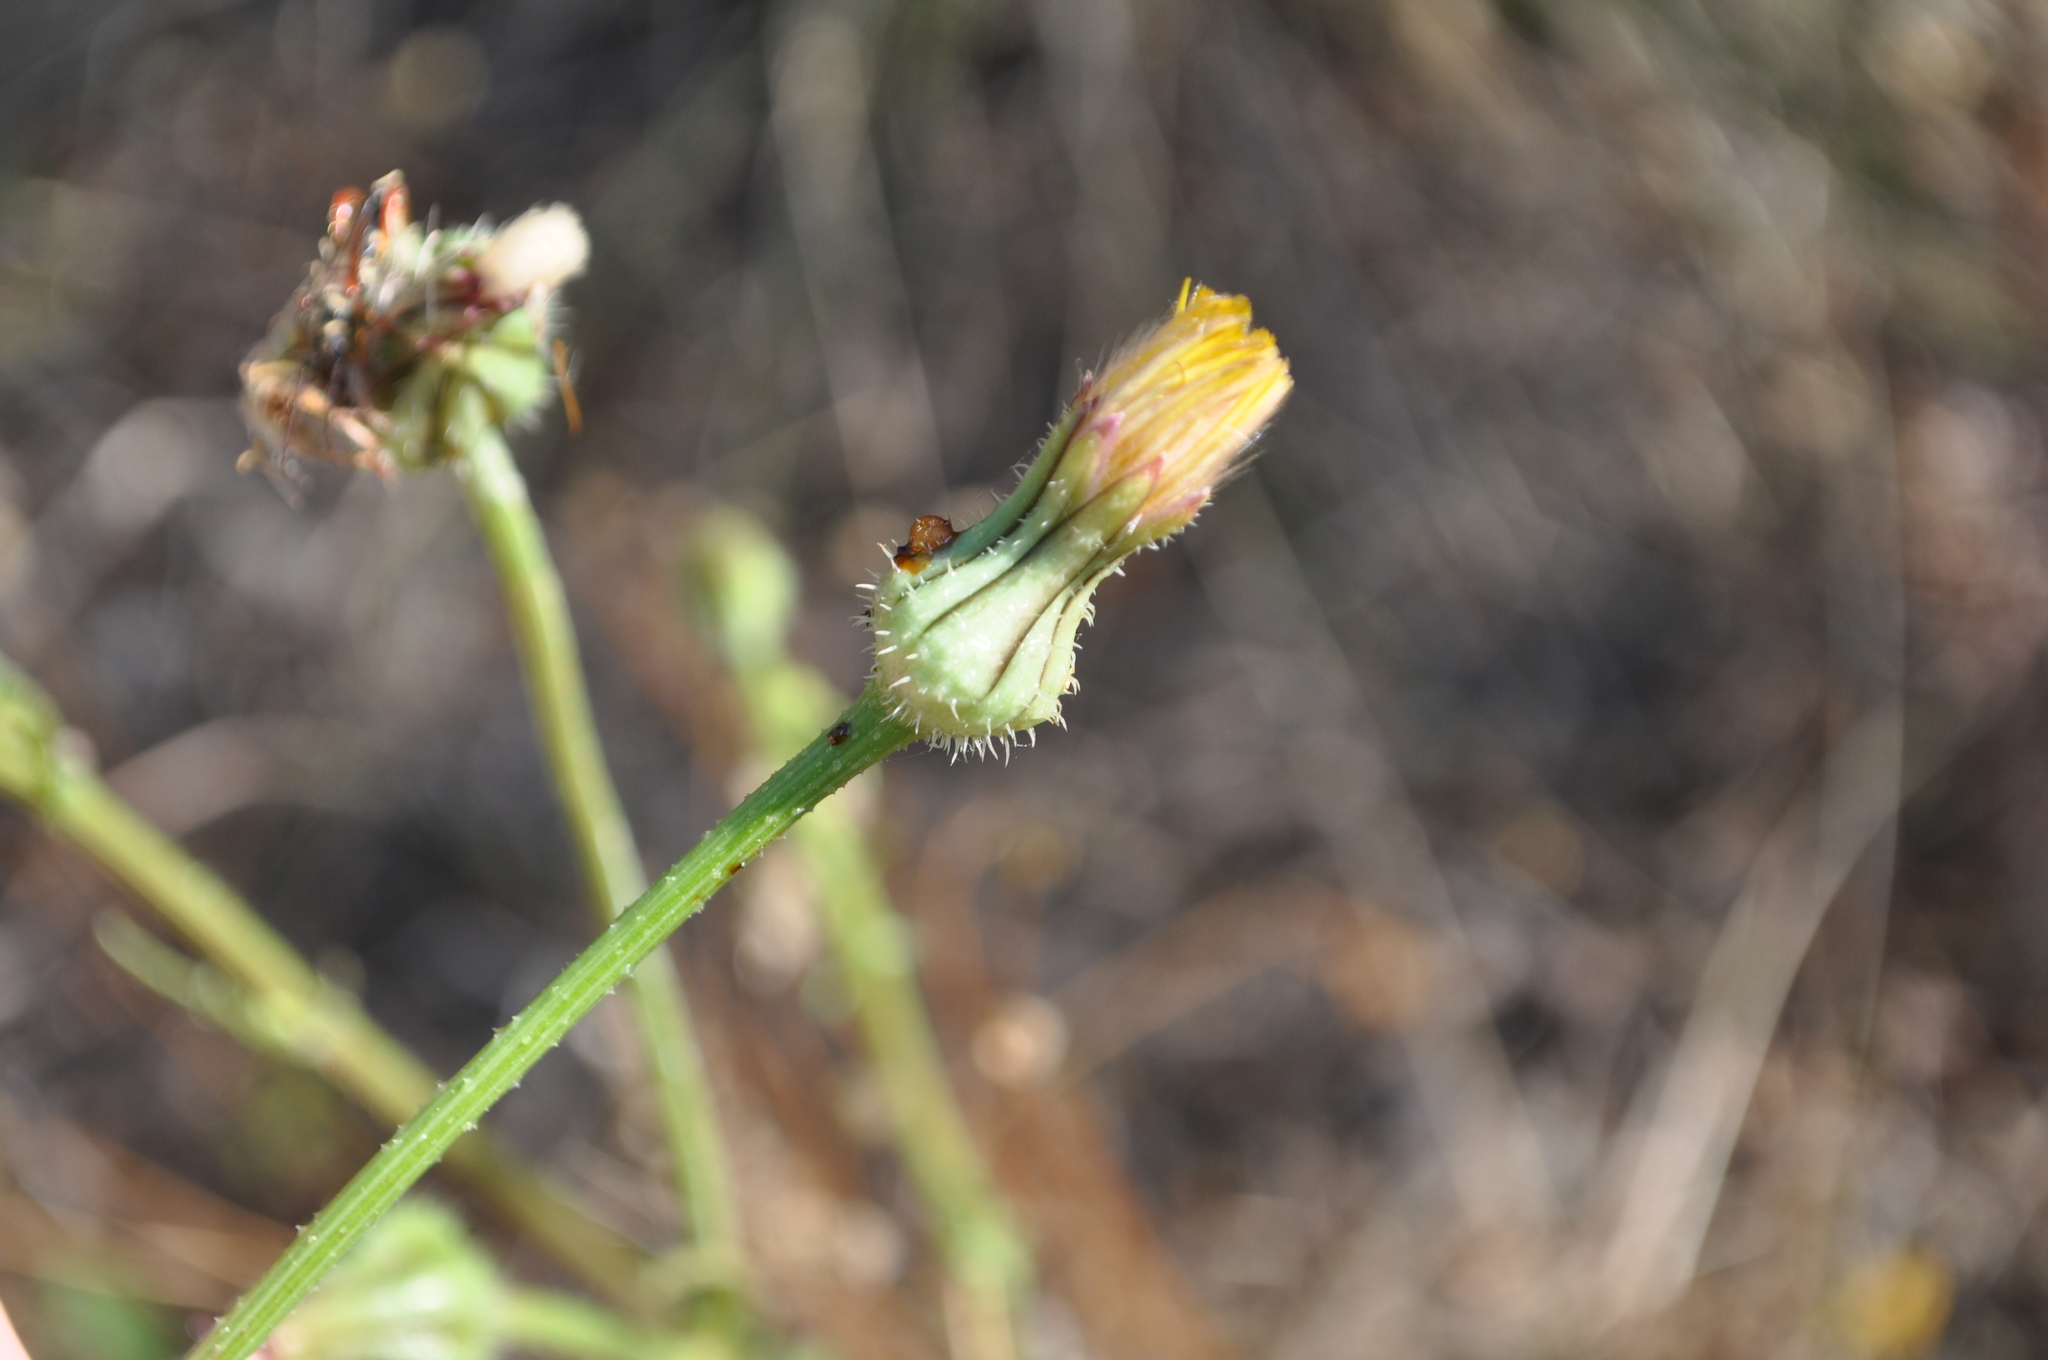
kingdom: Plantae
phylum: Tracheophyta
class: Magnoliopsida
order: Asterales
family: Asteraceae
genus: Urospermum
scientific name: Urospermum picroides
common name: False hawkbit
